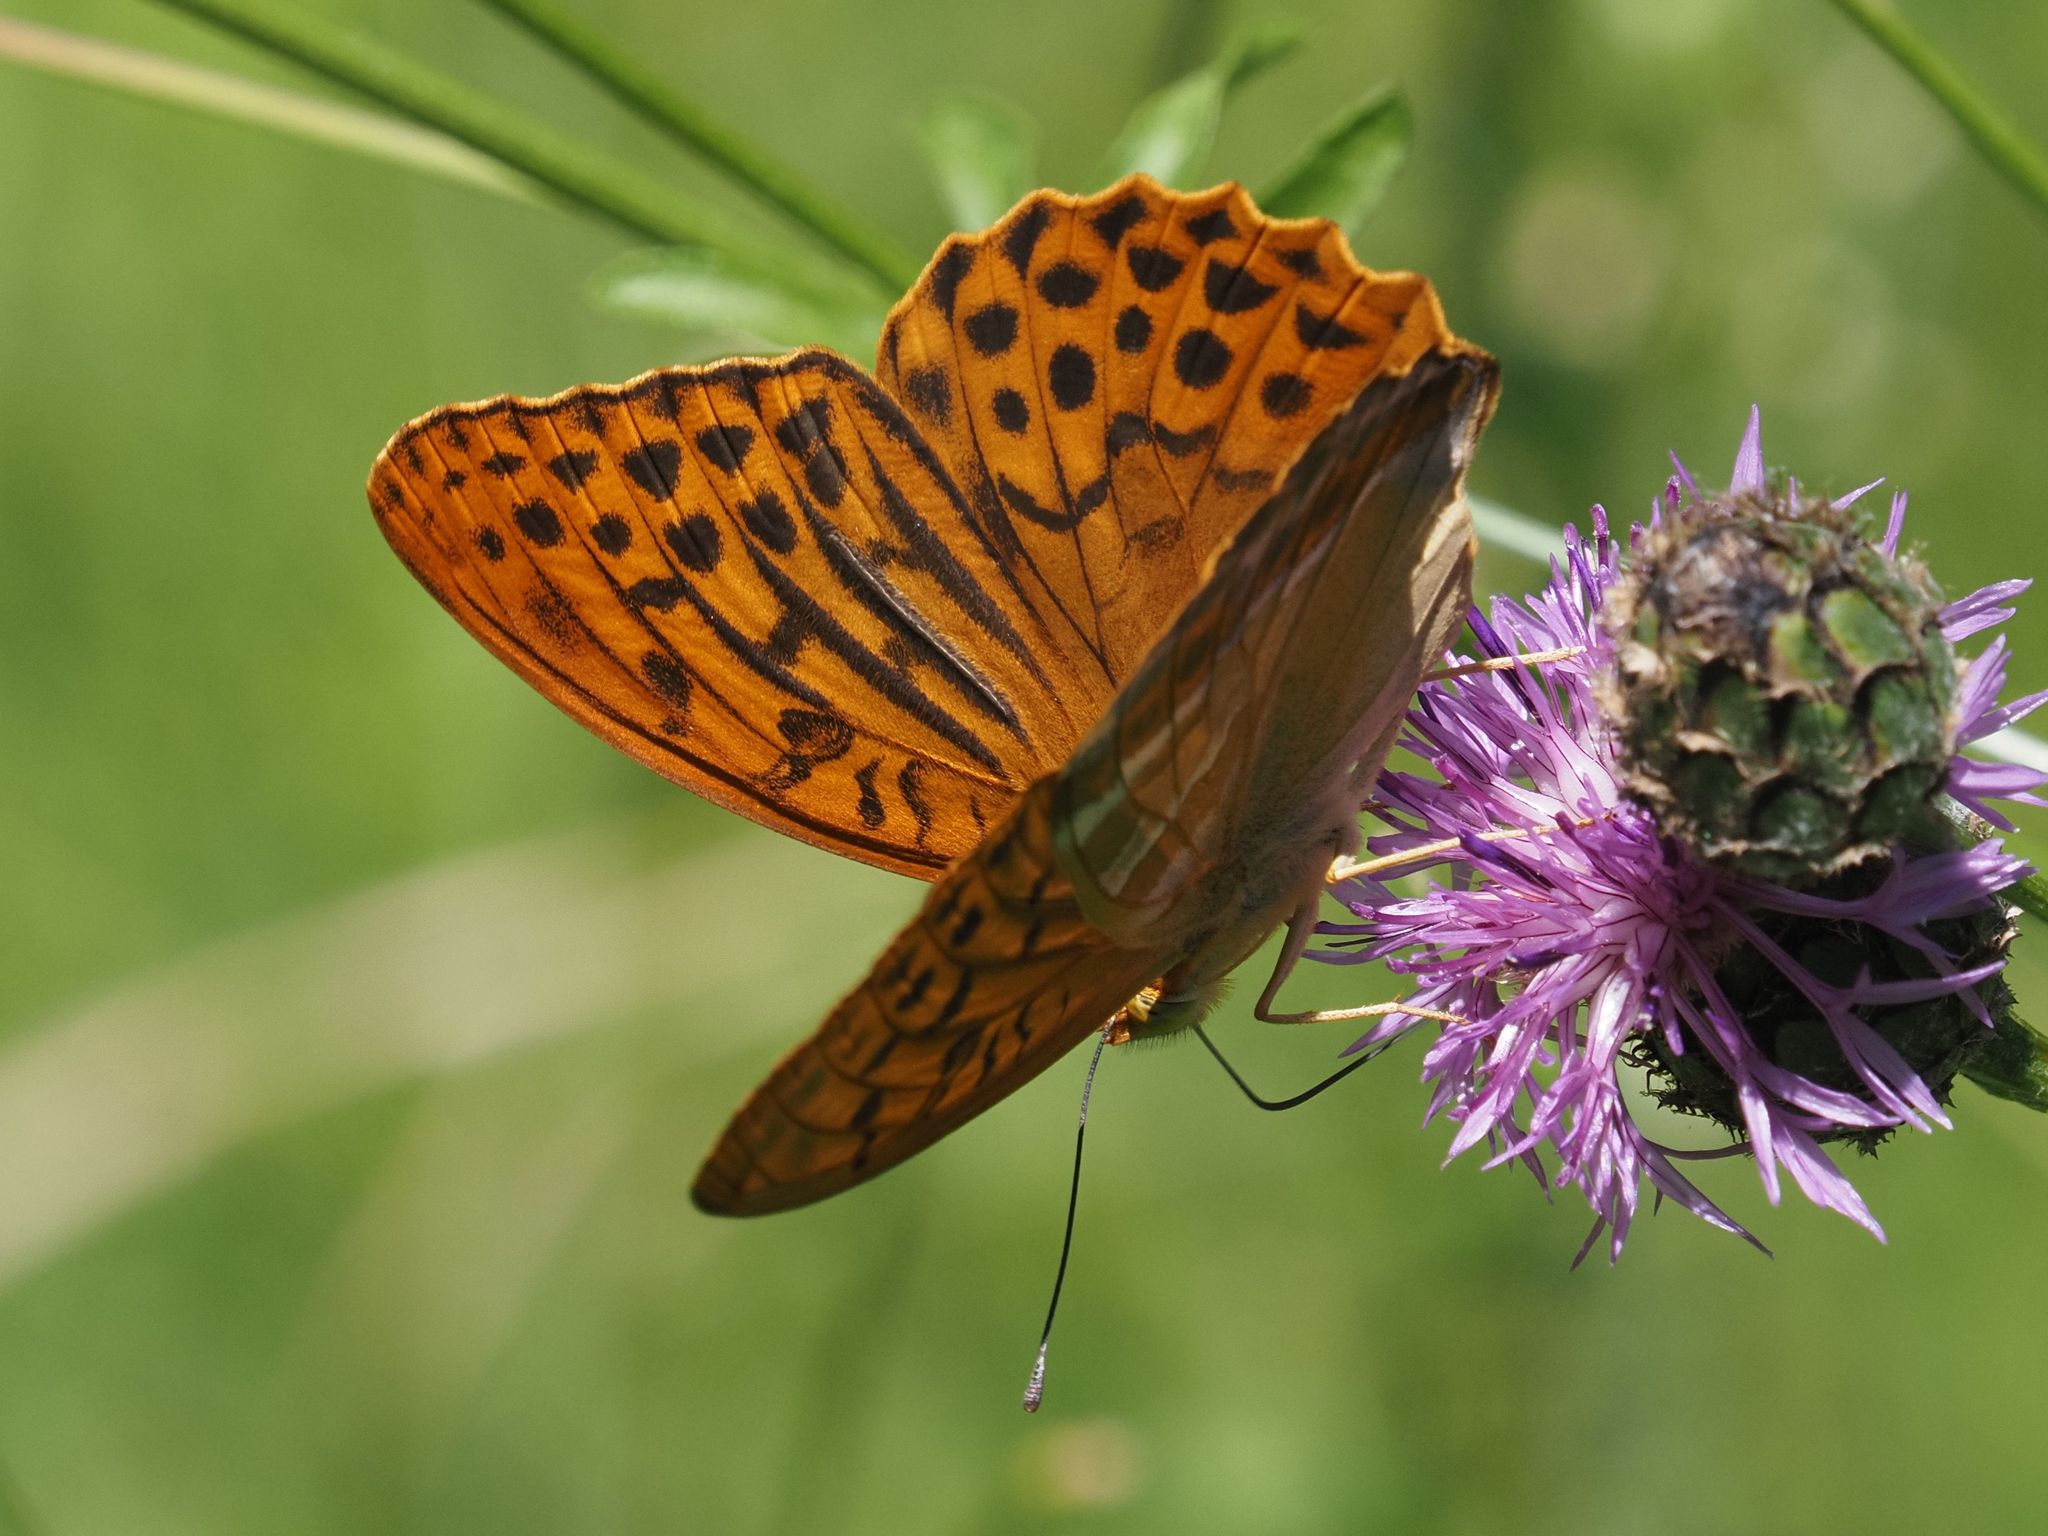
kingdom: Animalia
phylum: Arthropoda
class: Insecta
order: Lepidoptera
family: Nymphalidae
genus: Argynnis
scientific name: Argynnis paphia
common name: Silver-washed fritillary
